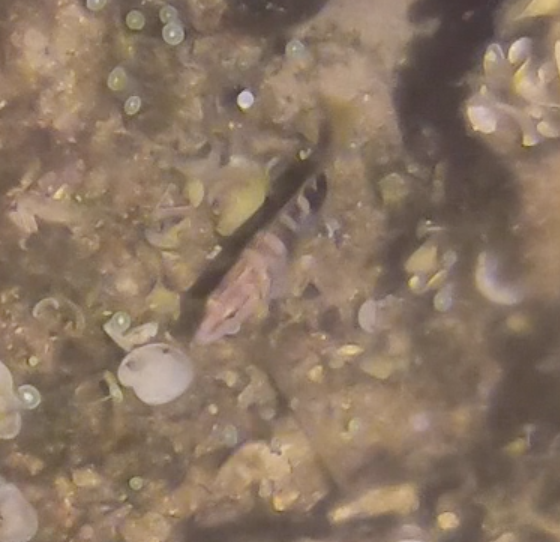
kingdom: Animalia
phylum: Chordata
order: Perciformes
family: Serranidae
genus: Serranus
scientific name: Serranus scriba
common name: Painted comber
